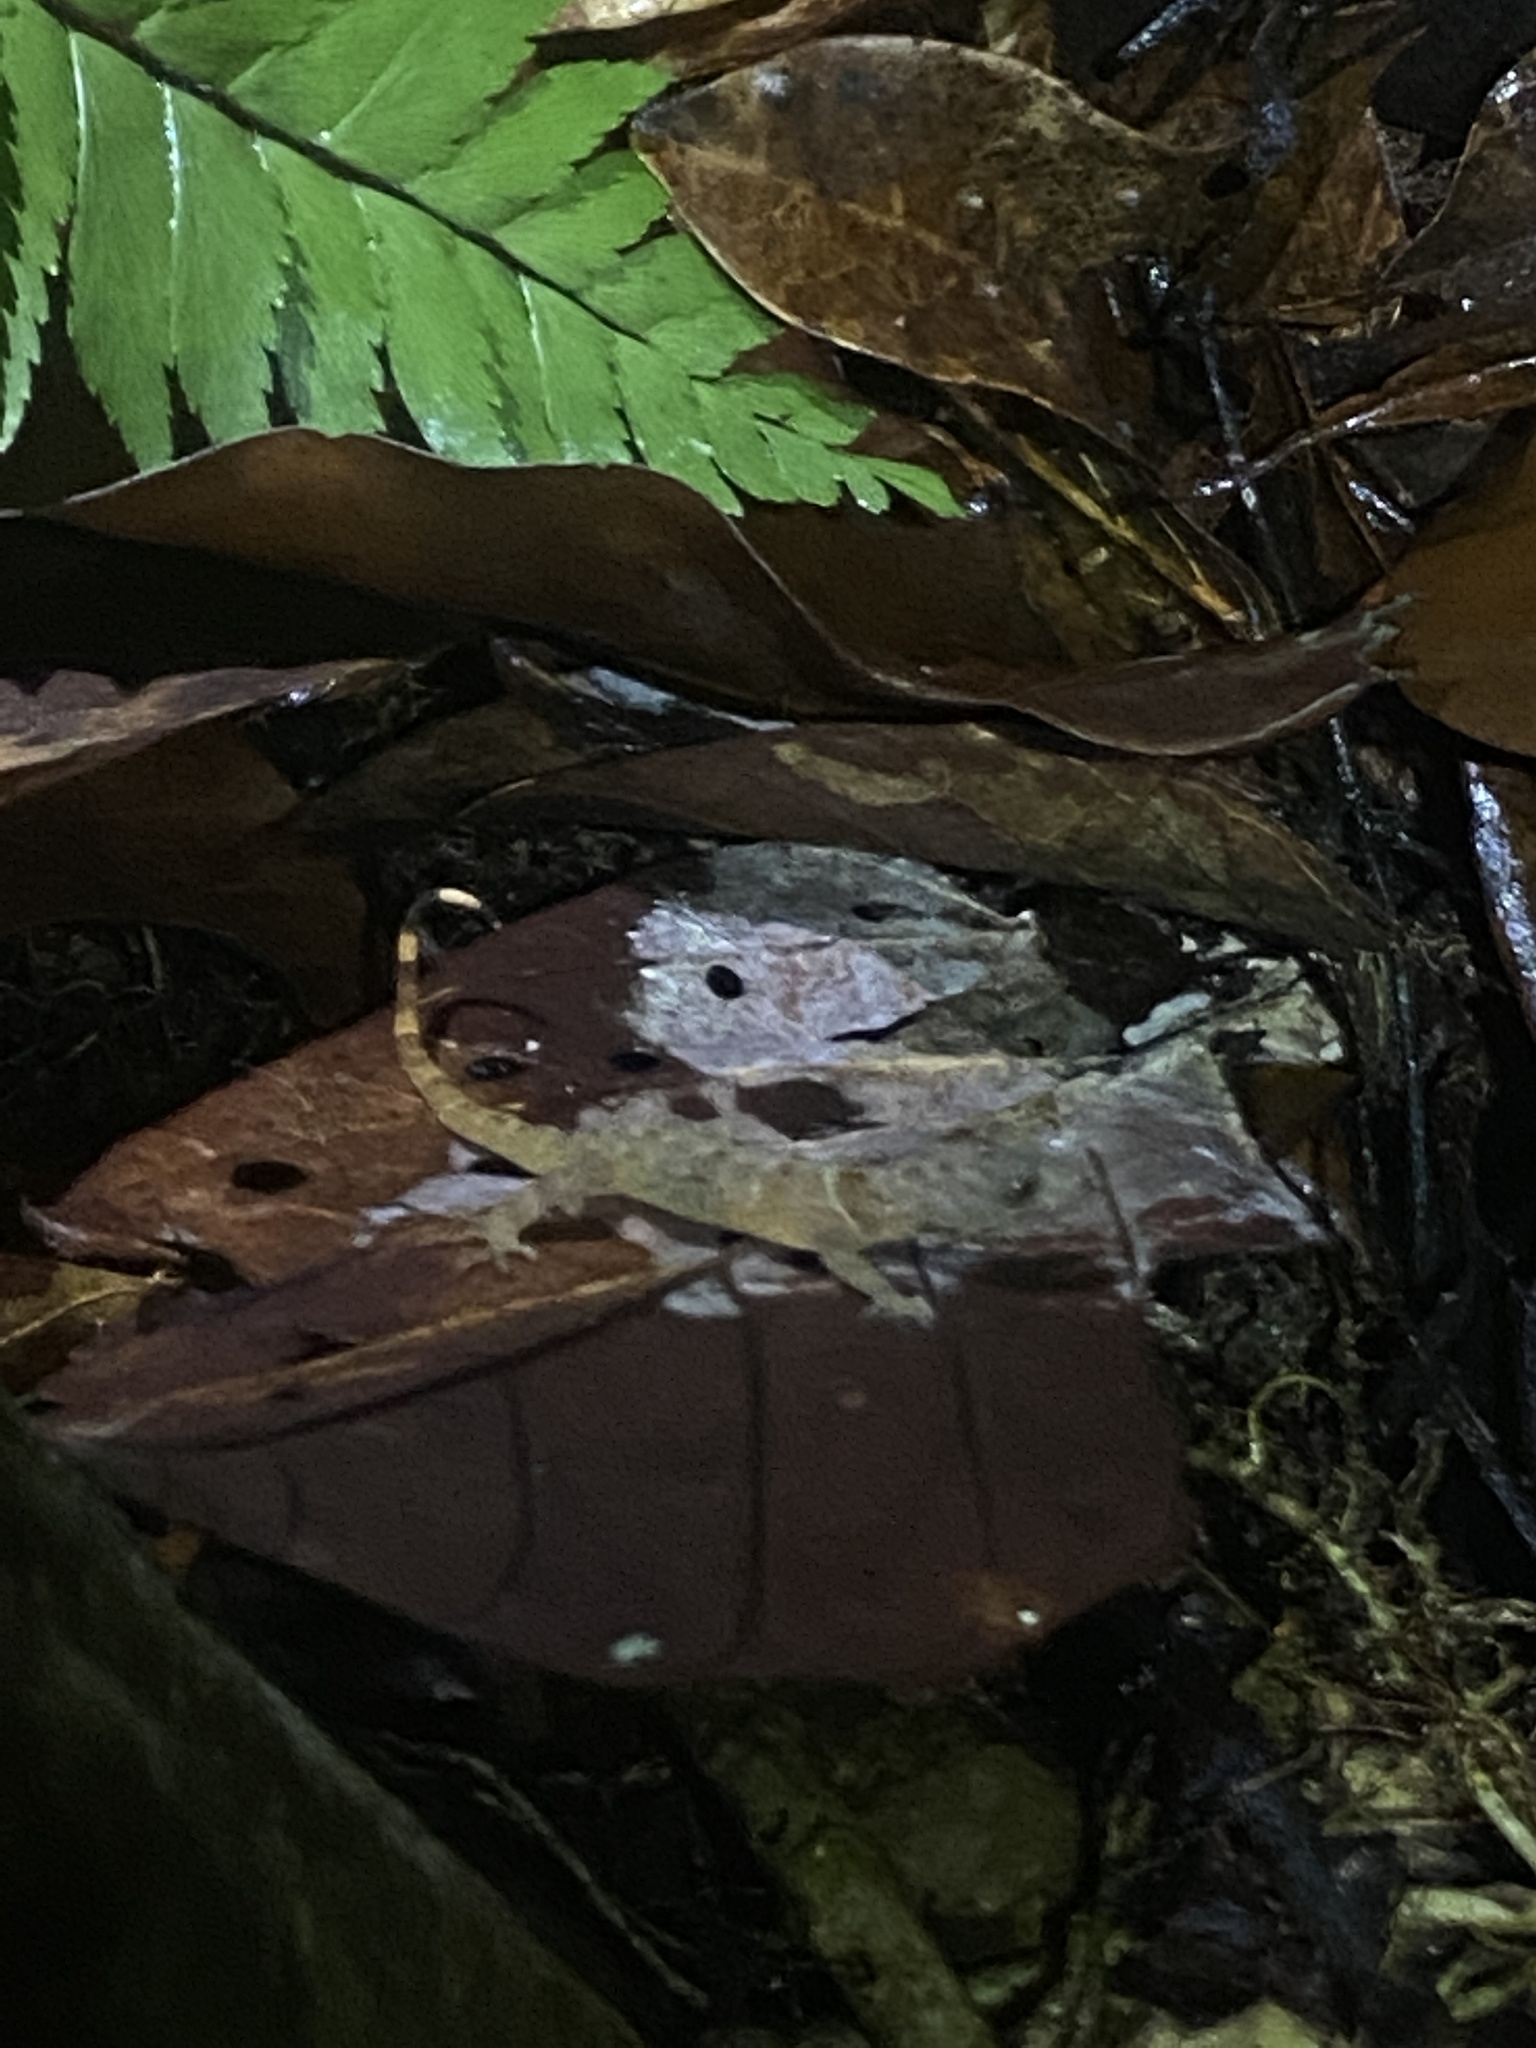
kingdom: Animalia
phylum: Chordata
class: Squamata
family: Sphaerodactylidae
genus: Gonatodes
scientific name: Gonatodes humeralis
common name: South american clawed gecko
